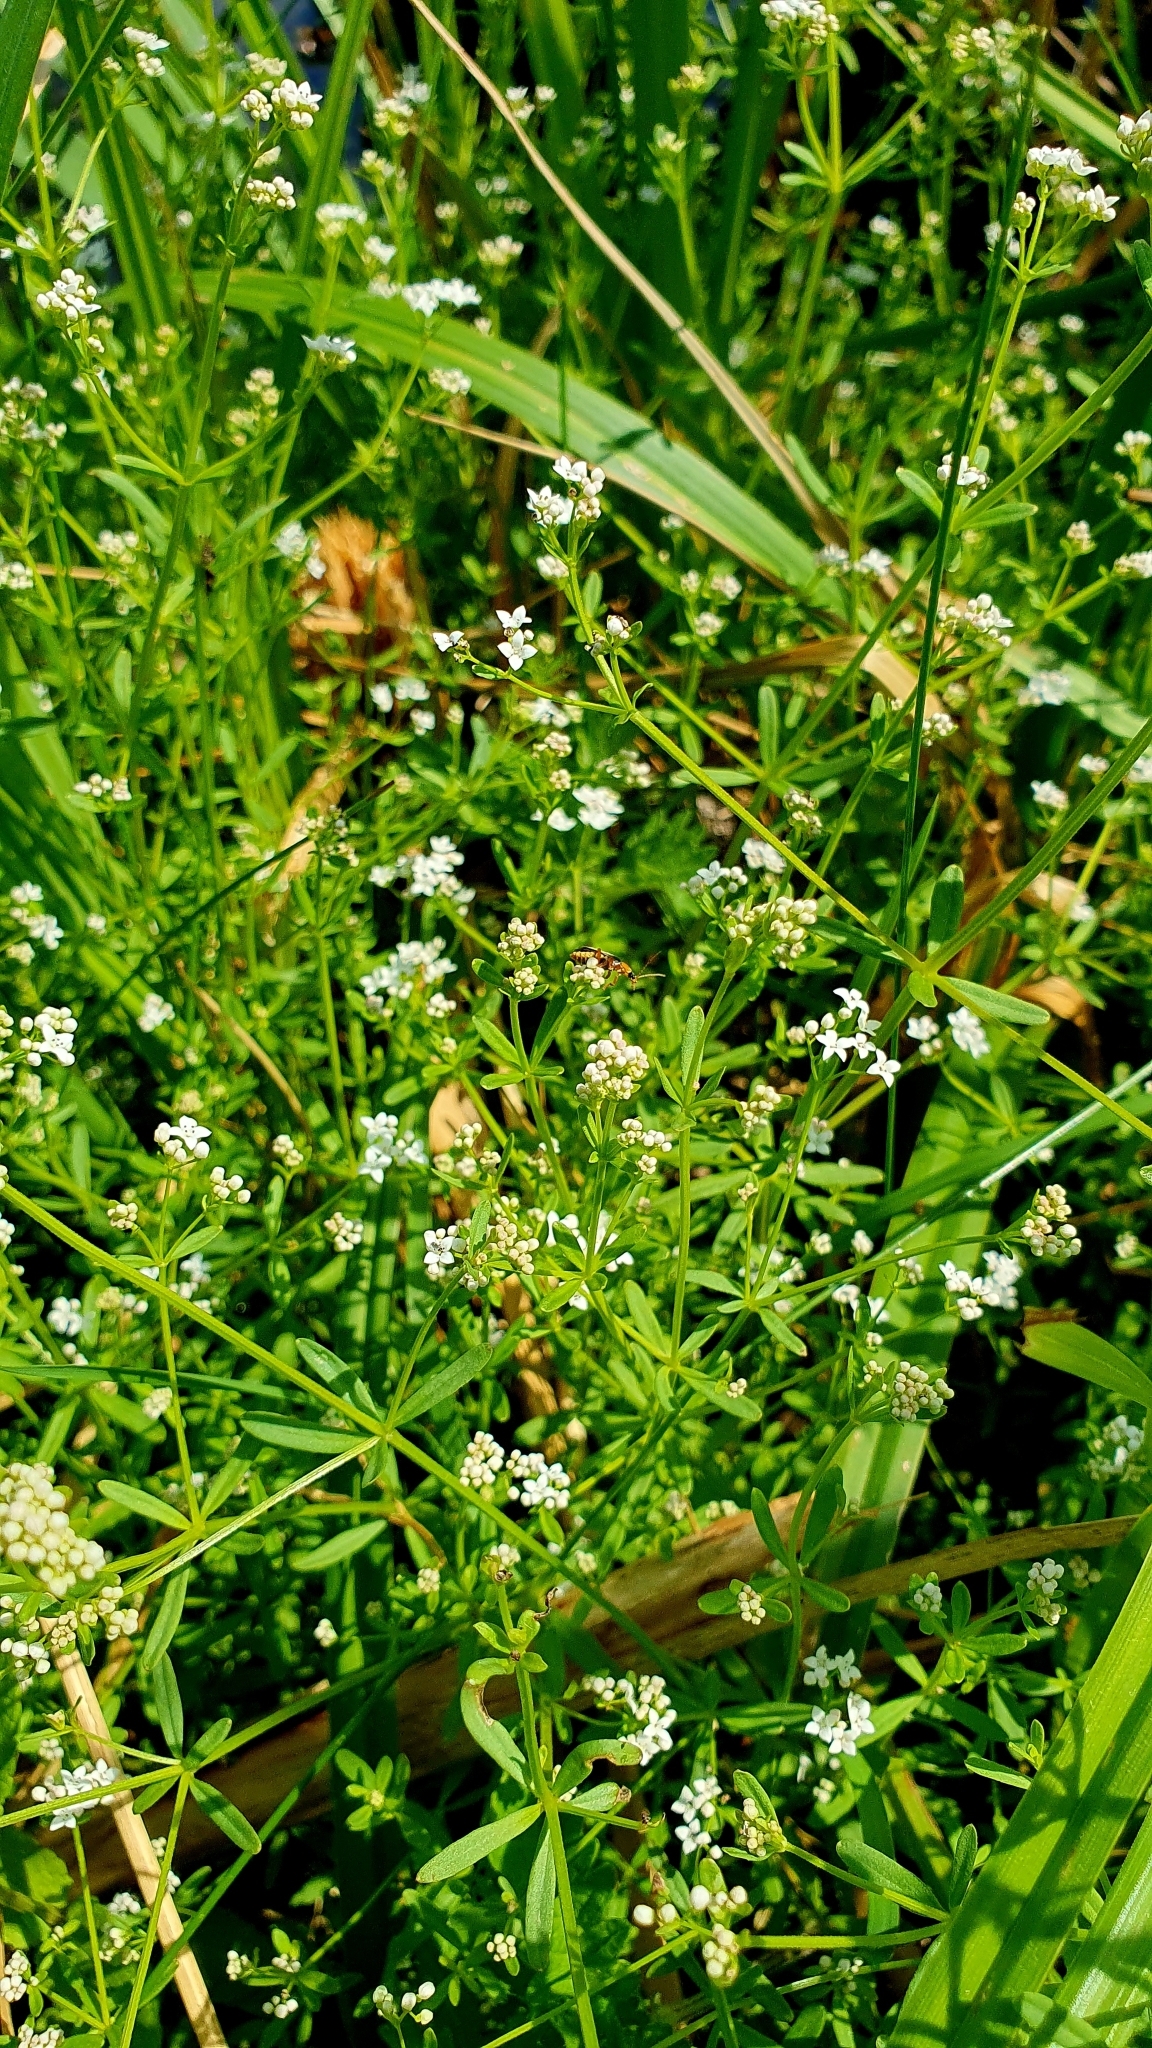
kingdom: Plantae
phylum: Tracheophyta
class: Magnoliopsida
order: Gentianales
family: Rubiaceae
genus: Galium
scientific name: Galium palustre
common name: Common marsh-bedstraw
